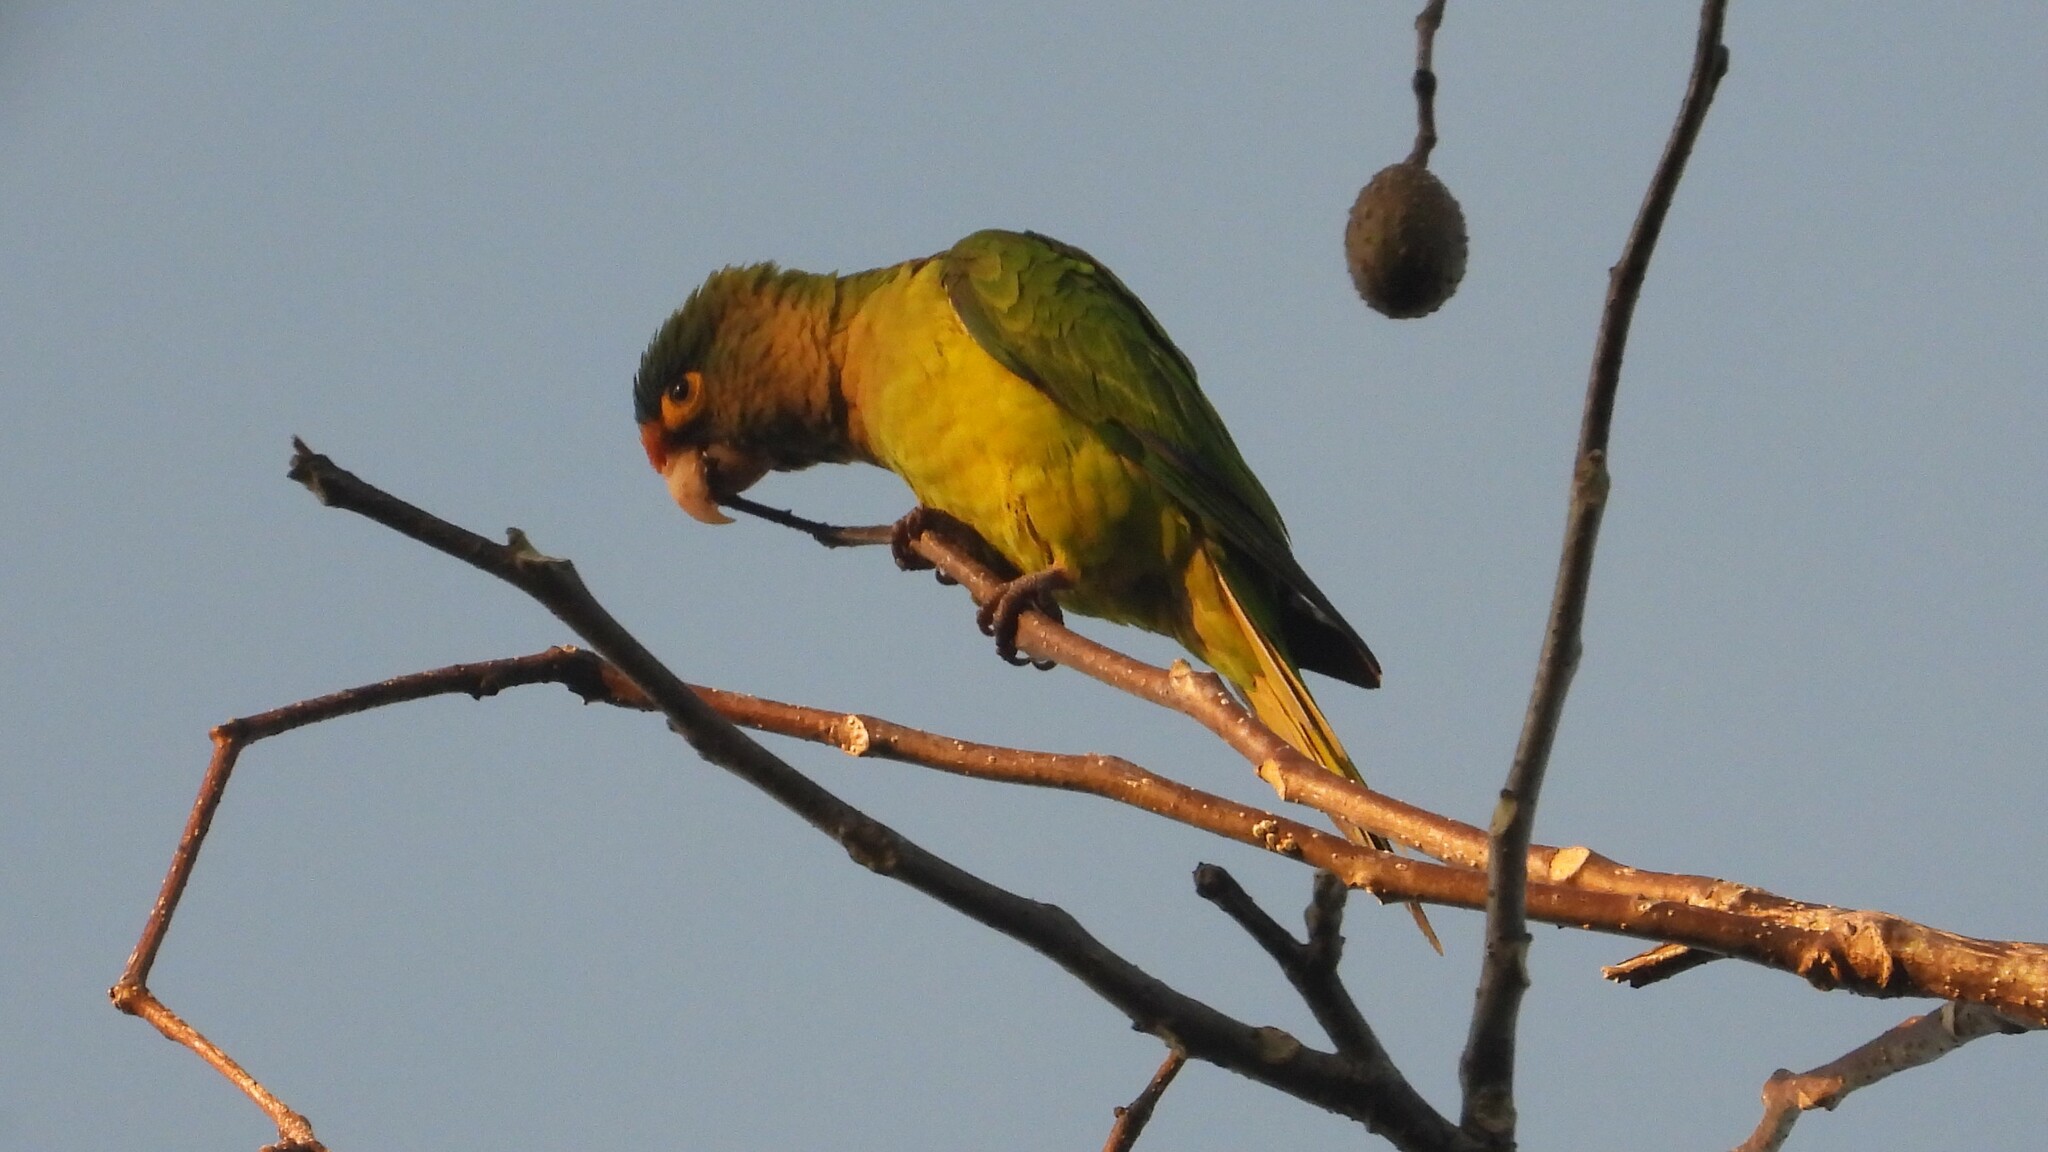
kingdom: Animalia
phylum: Chordata
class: Aves
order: Psittaciformes
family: Psittacidae
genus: Aratinga
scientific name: Aratinga canicularis
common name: Orange-fronted parakeet
